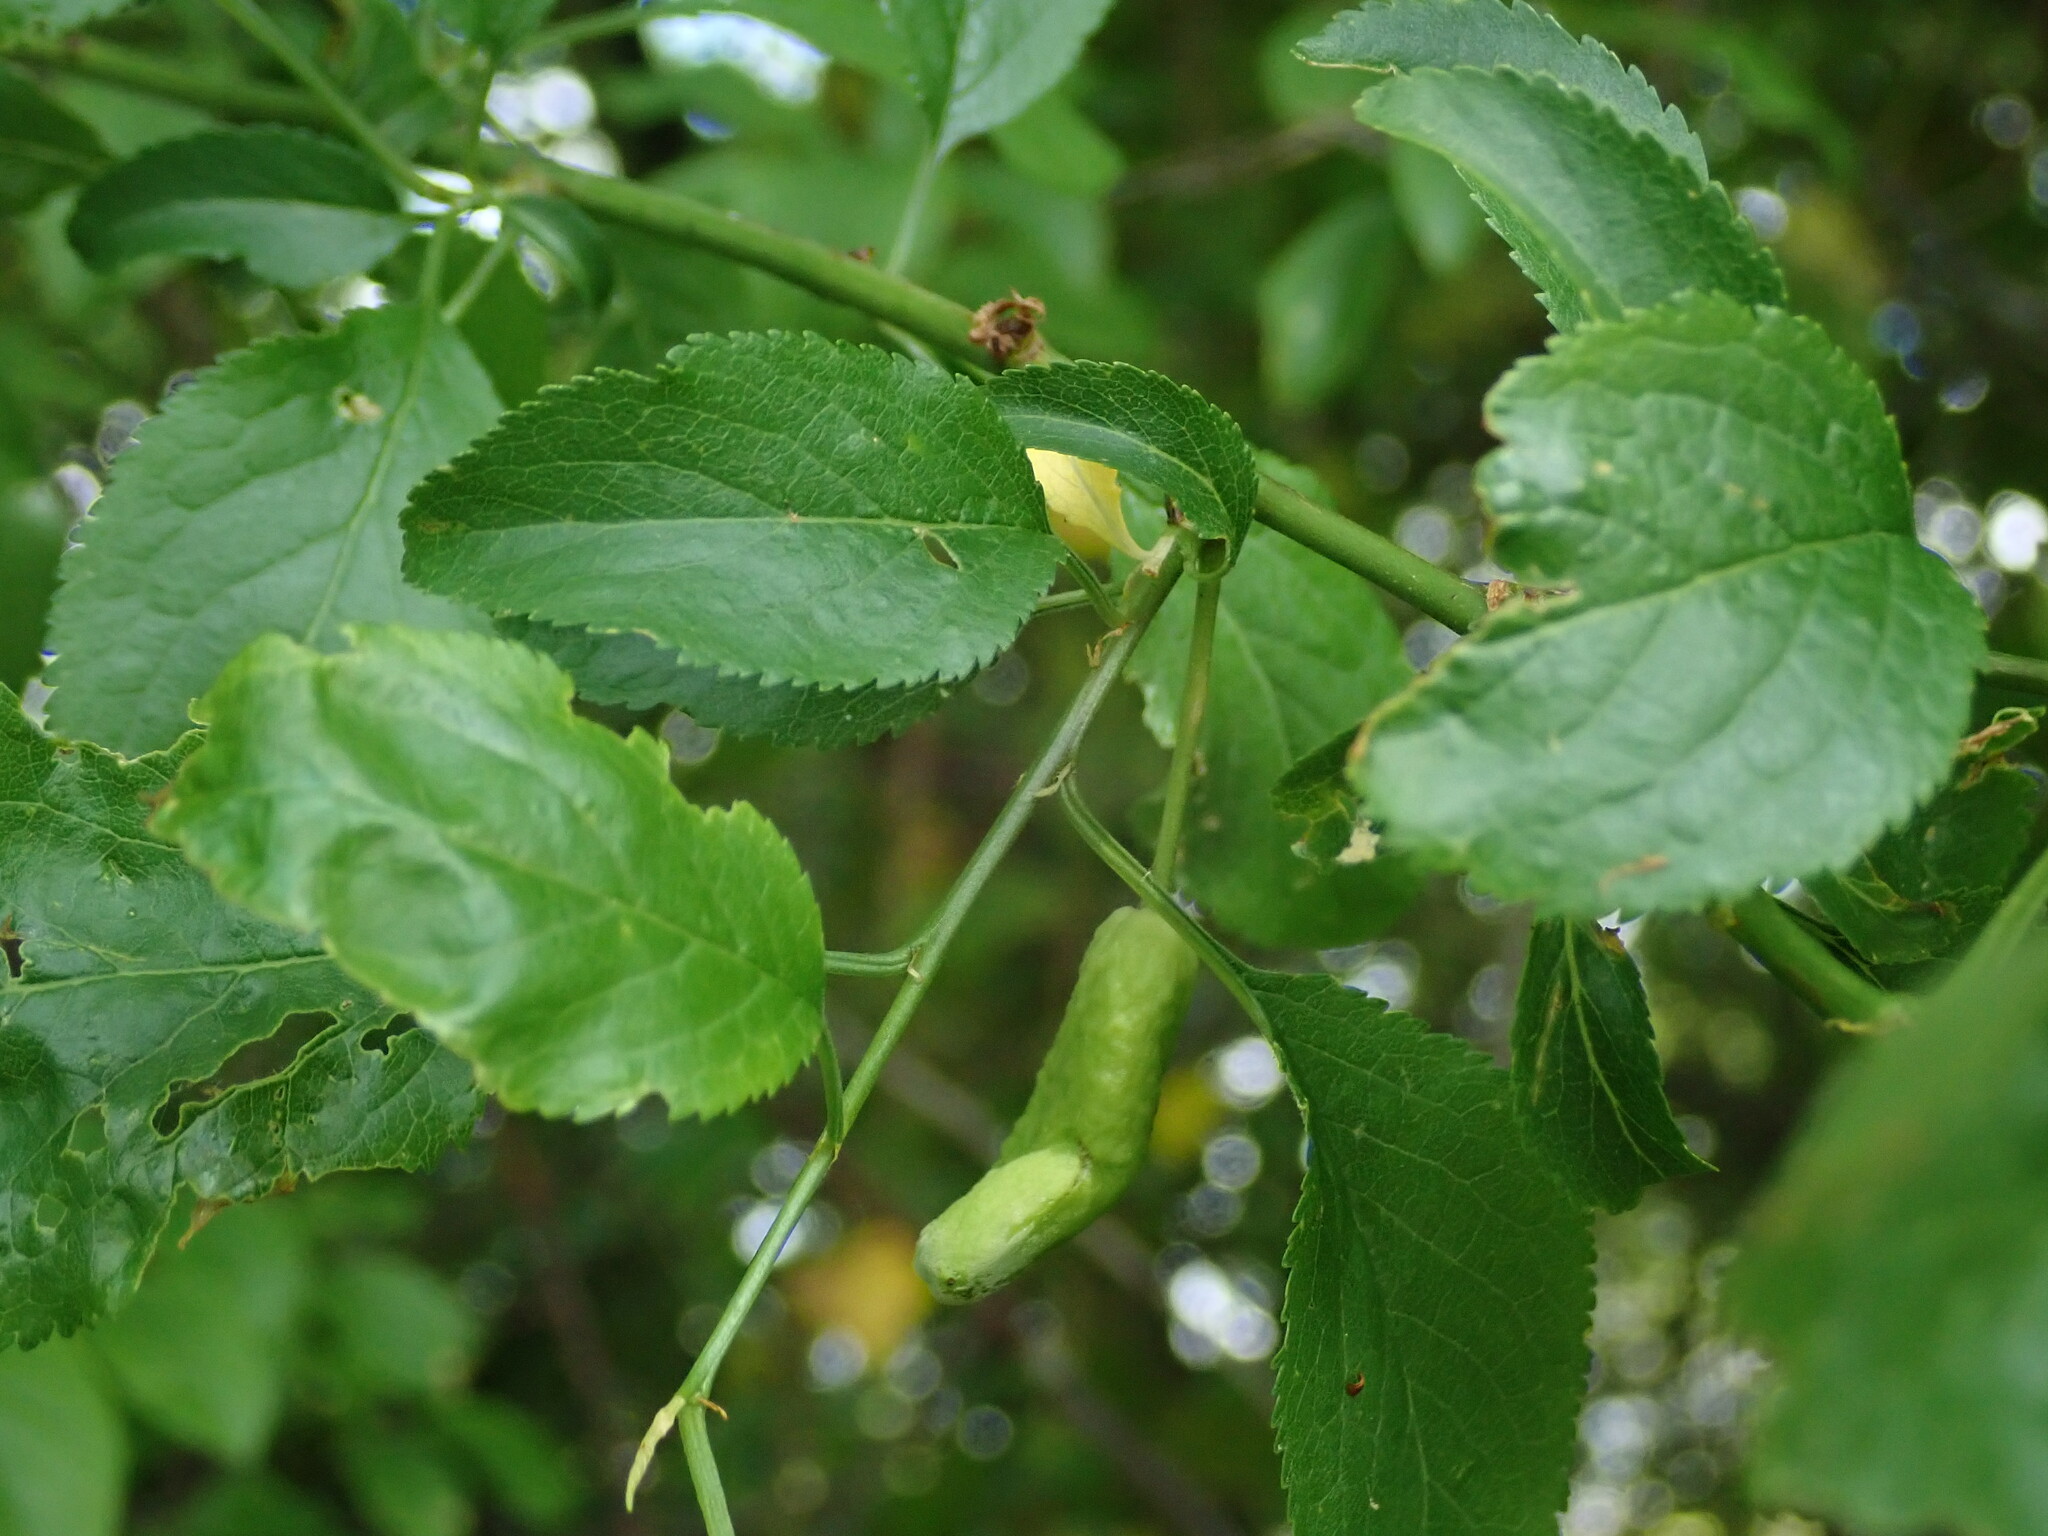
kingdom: Fungi
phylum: Ascomycota
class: Taphrinomycetes
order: Taphrinales
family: Taphrinaceae
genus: Taphrina
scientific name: Taphrina pruni
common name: Pocket plum
